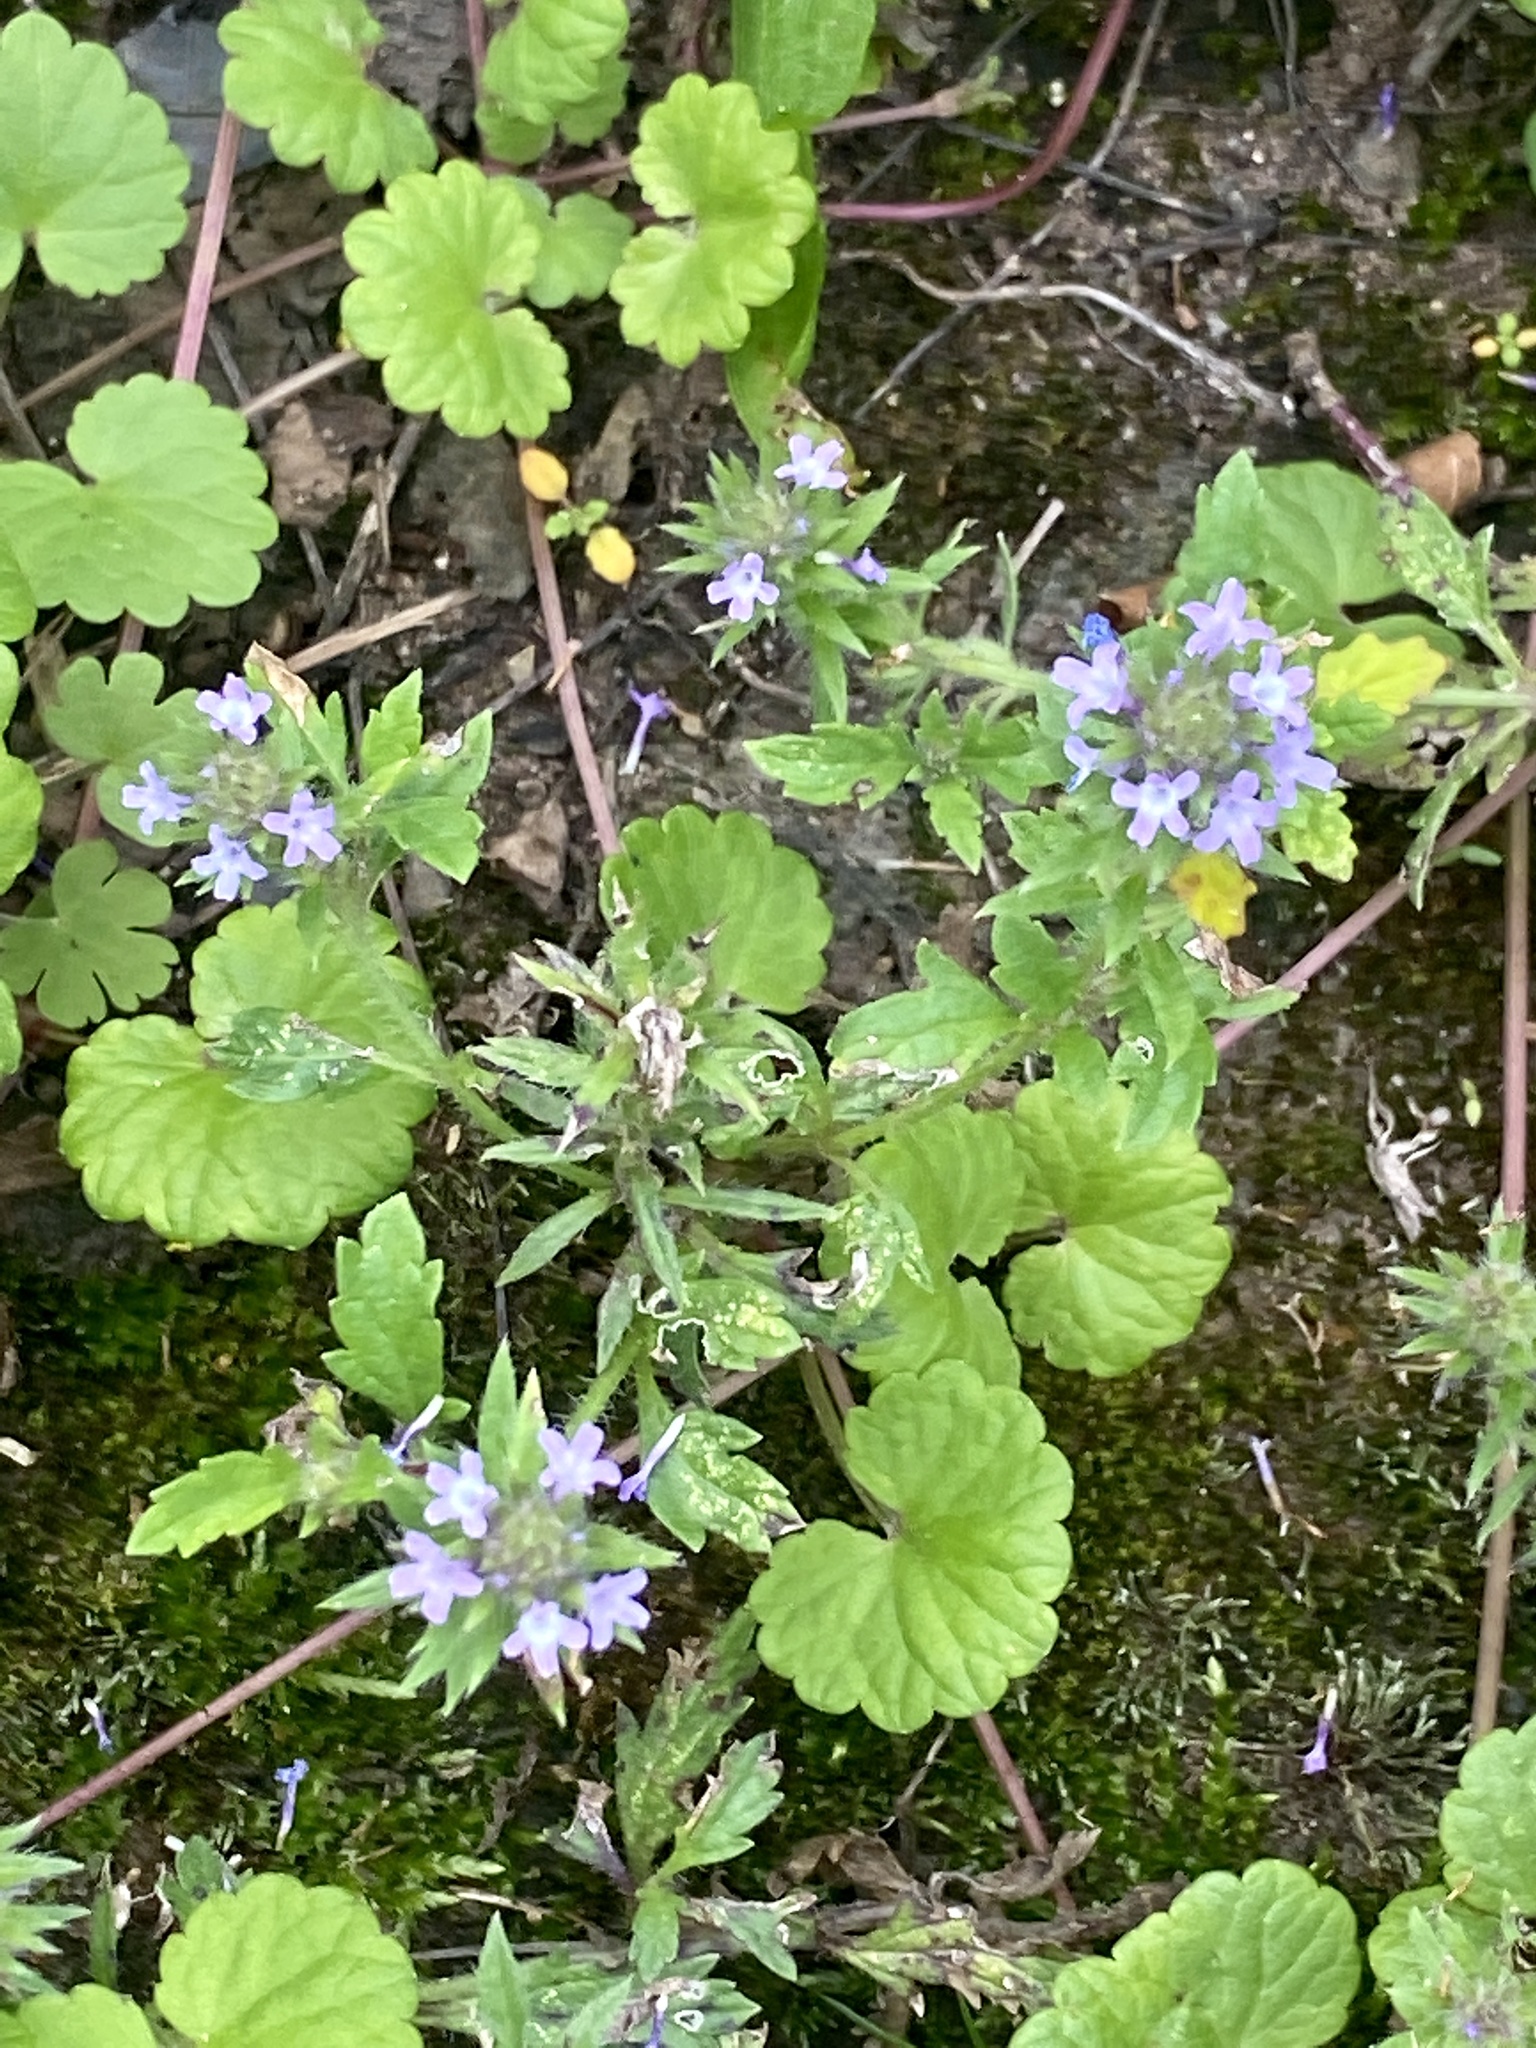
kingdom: Plantae
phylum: Tracheophyta
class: Magnoliopsida
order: Lamiales
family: Verbenaceae
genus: Verbena
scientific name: Verbena bracteata
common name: Bracted vervain
